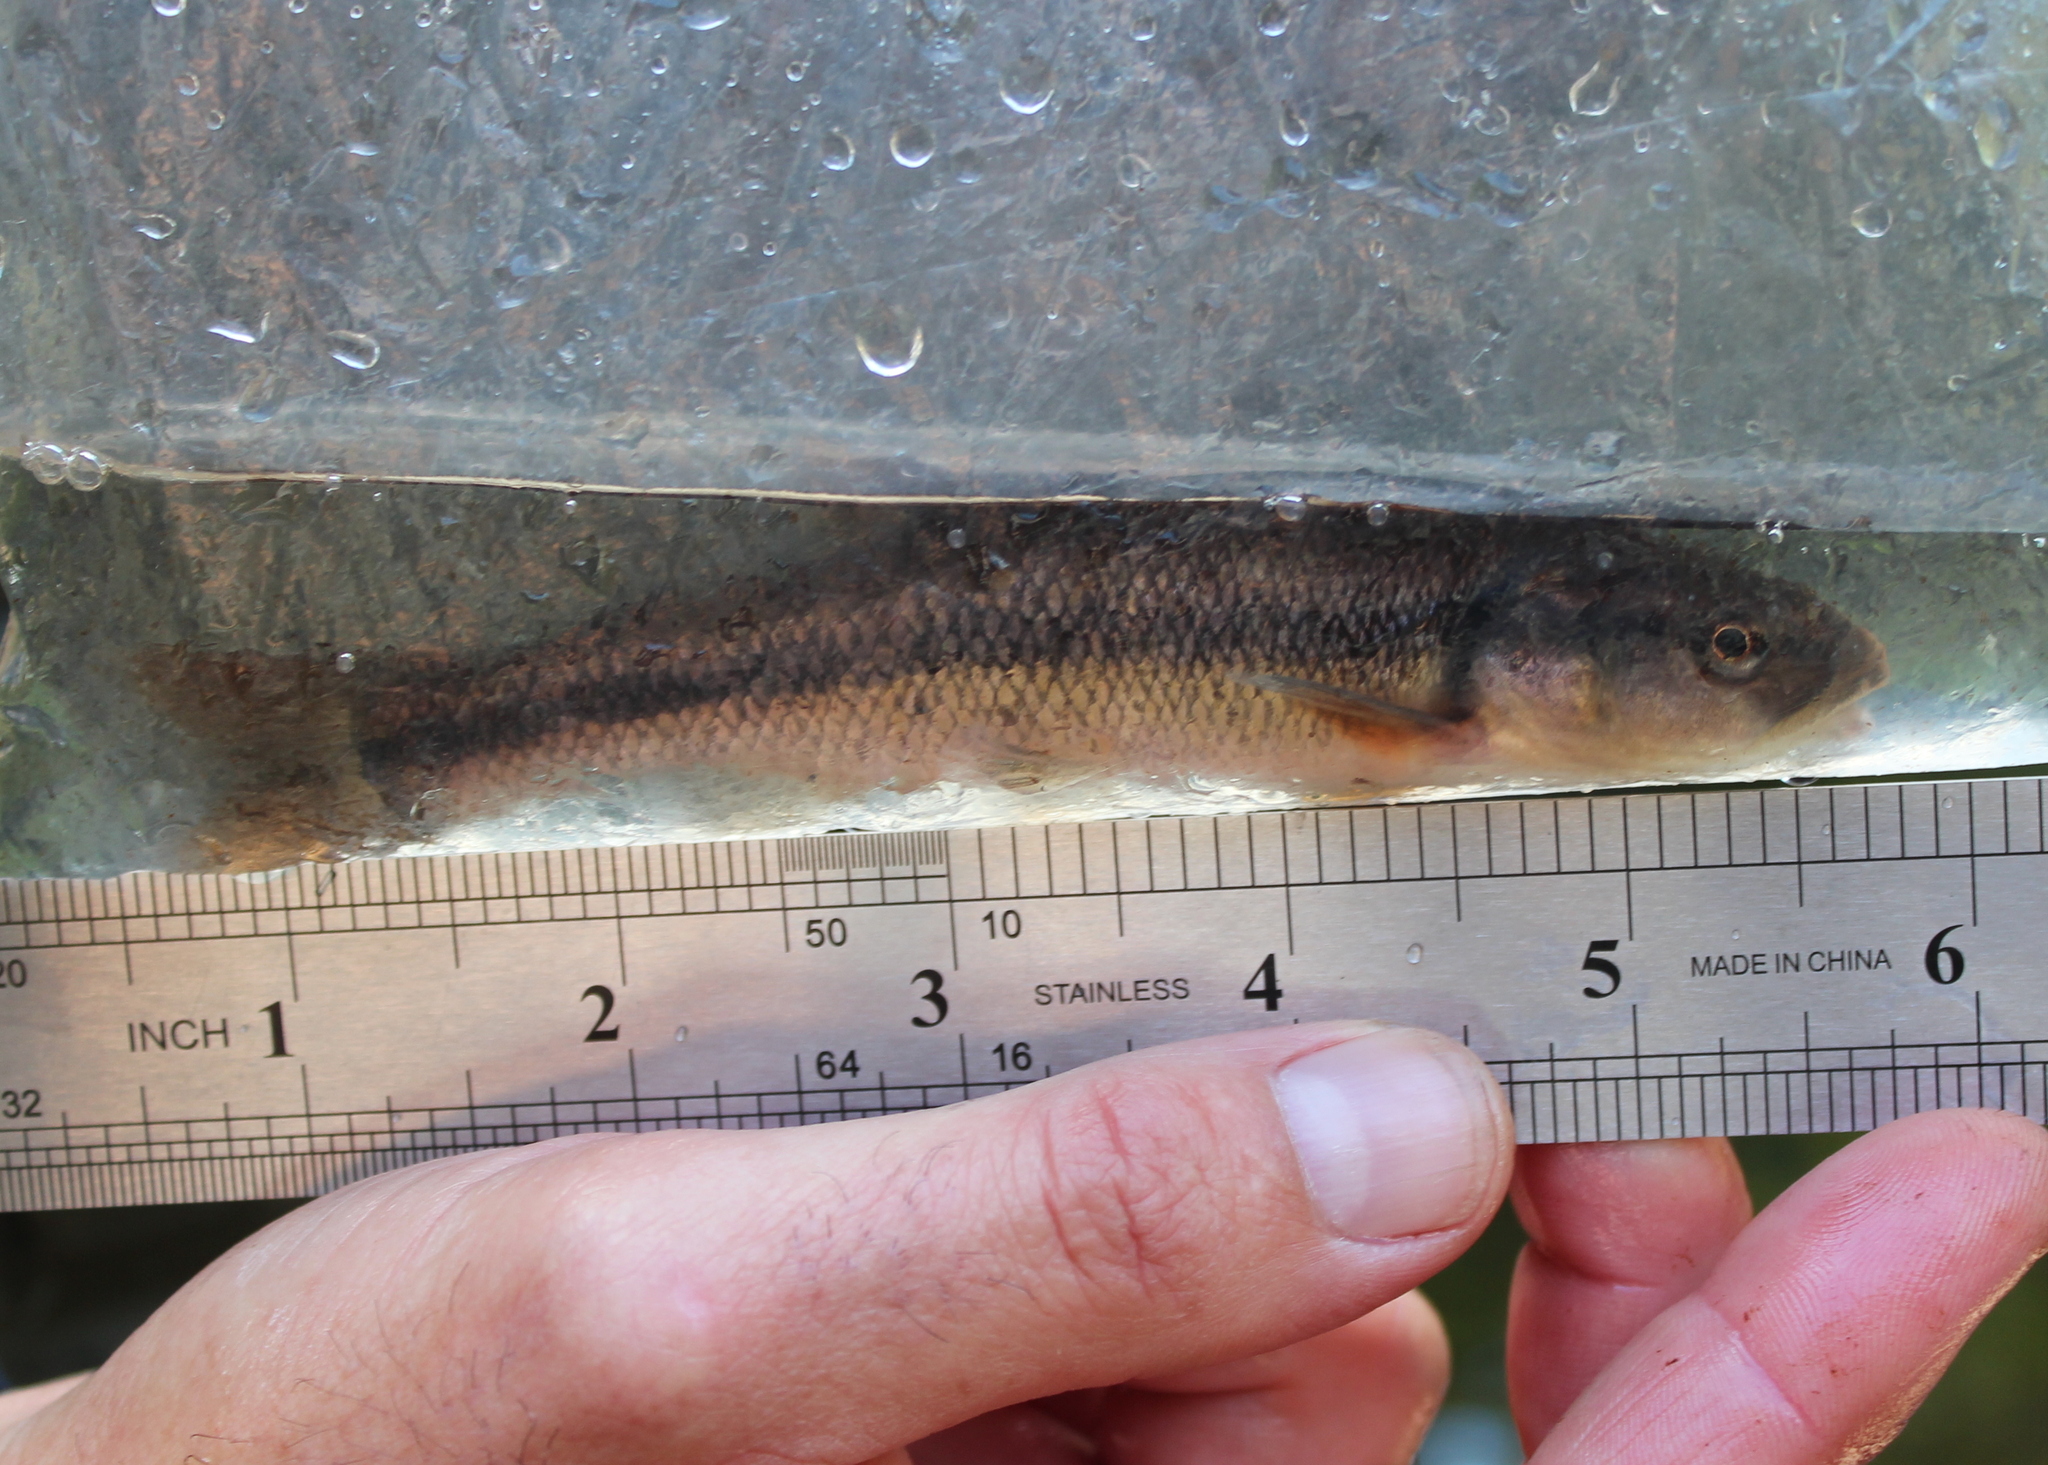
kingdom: Animalia
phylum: Chordata
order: Cypriniformes
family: Cyprinidae
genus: Semotilus
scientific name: Semotilus atromaculatus
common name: Creek chub
